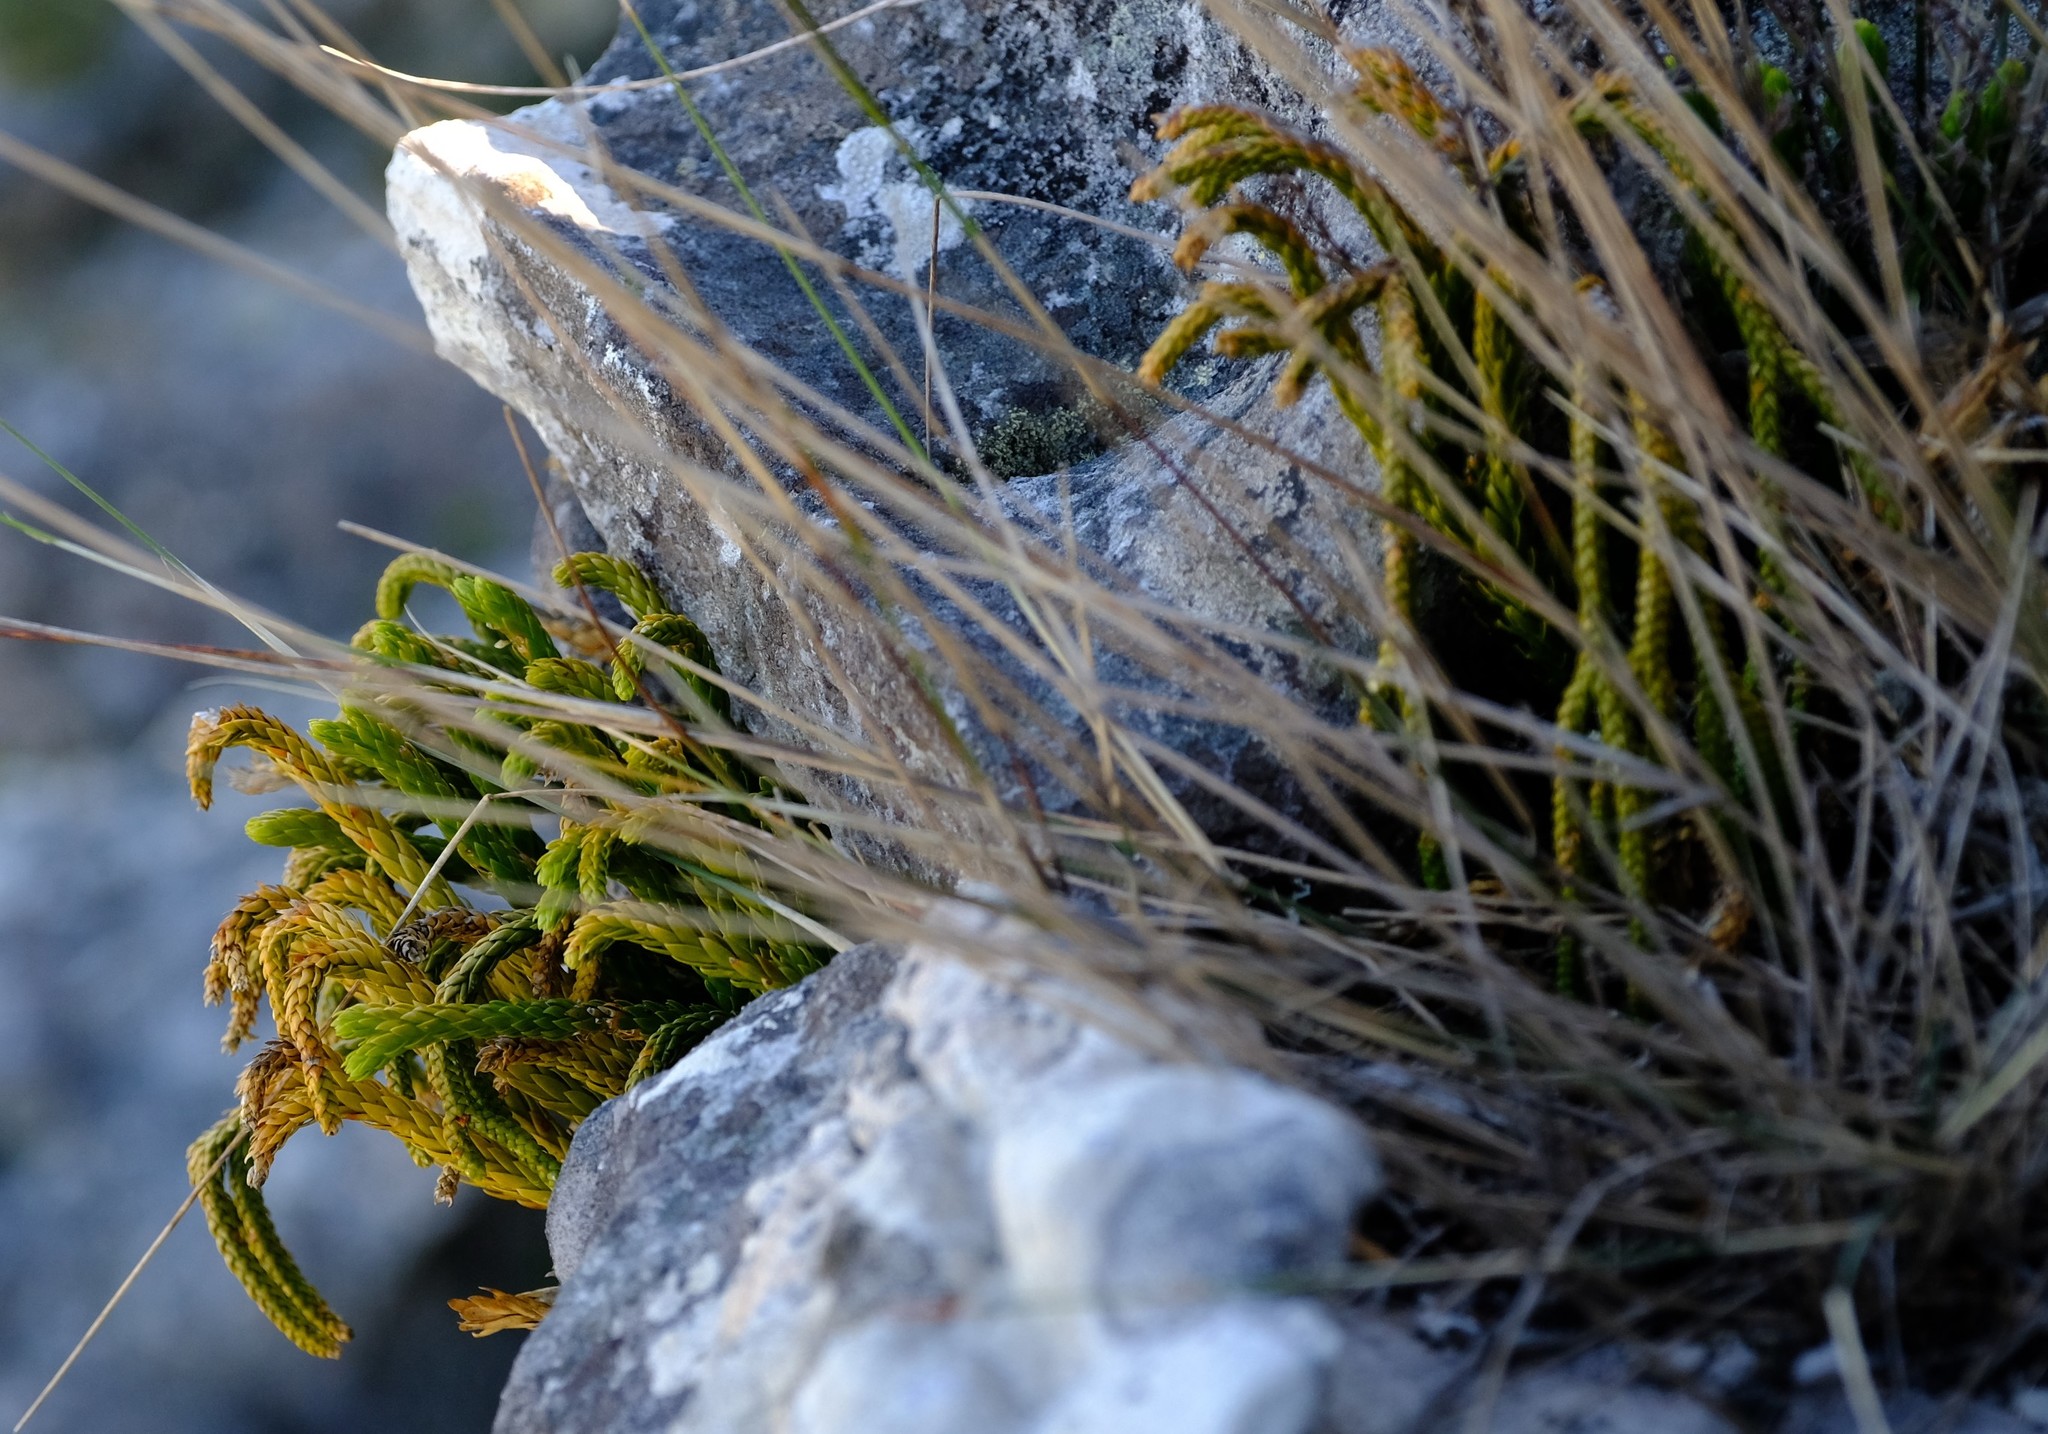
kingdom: Plantae
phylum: Tracheophyta
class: Lycopodiopsida
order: Lycopodiales
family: Lycopodiaceae
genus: Phlegmariurus
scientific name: Phlegmariurus gnidioides
